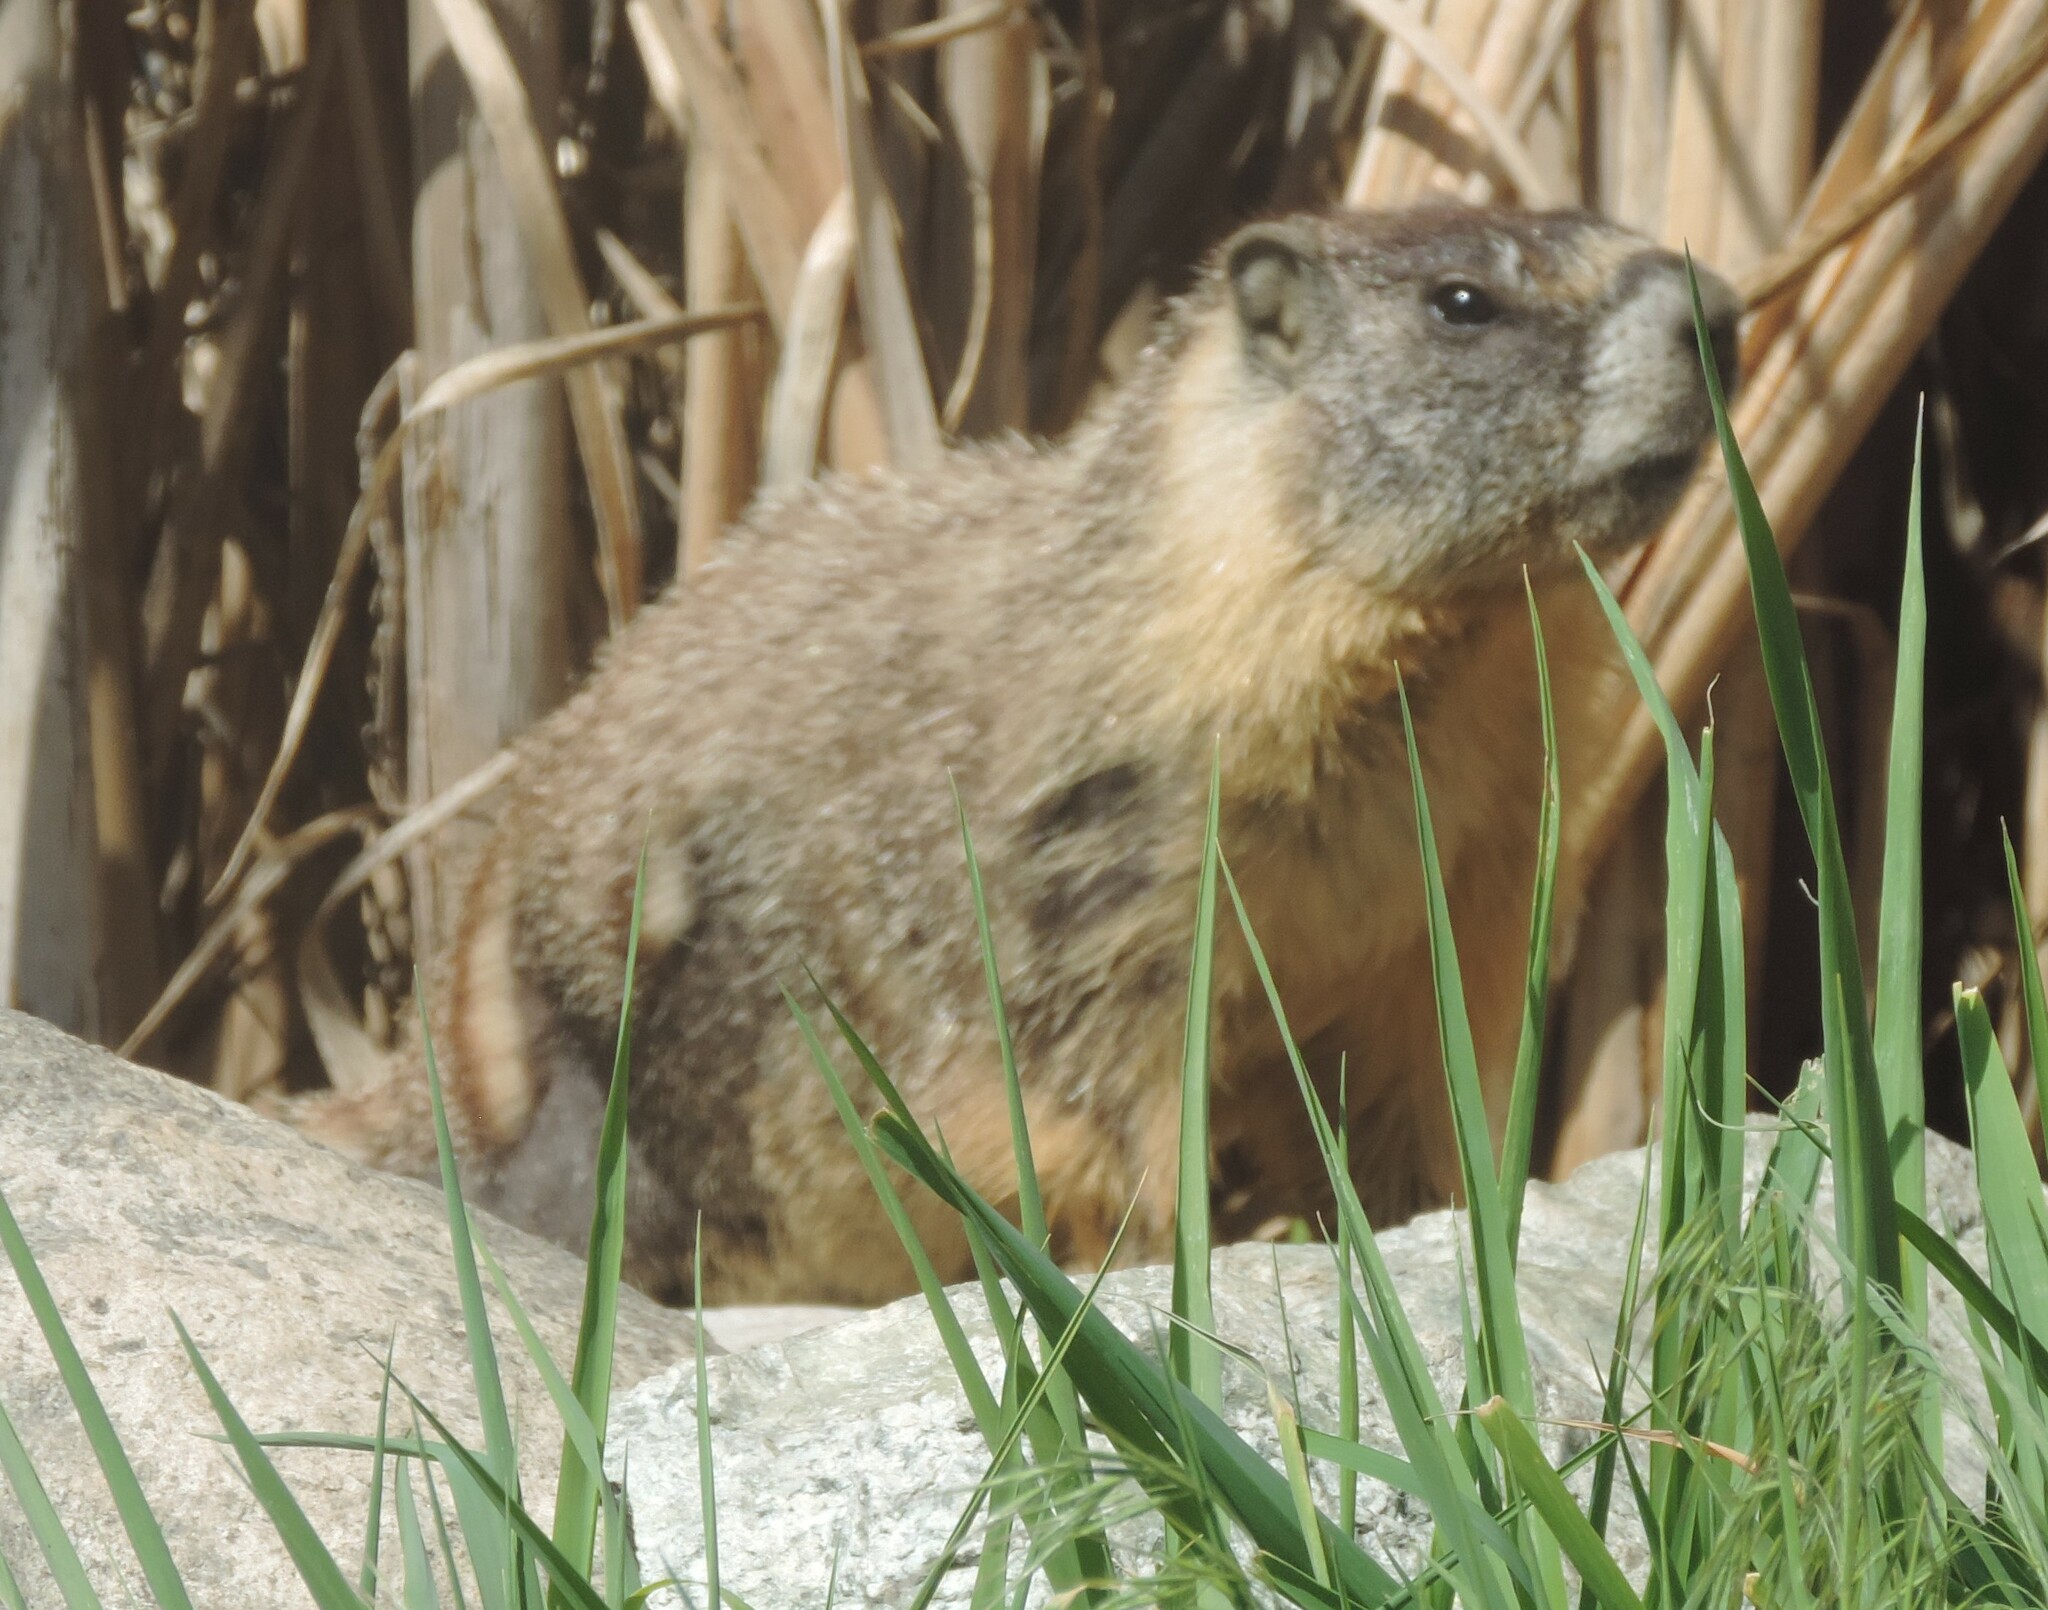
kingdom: Animalia
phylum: Chordata
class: Mammalia
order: Rodentia
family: Sciuridae
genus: Marmota
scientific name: Marmota flaviventris
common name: Yellow-bellied marmot
